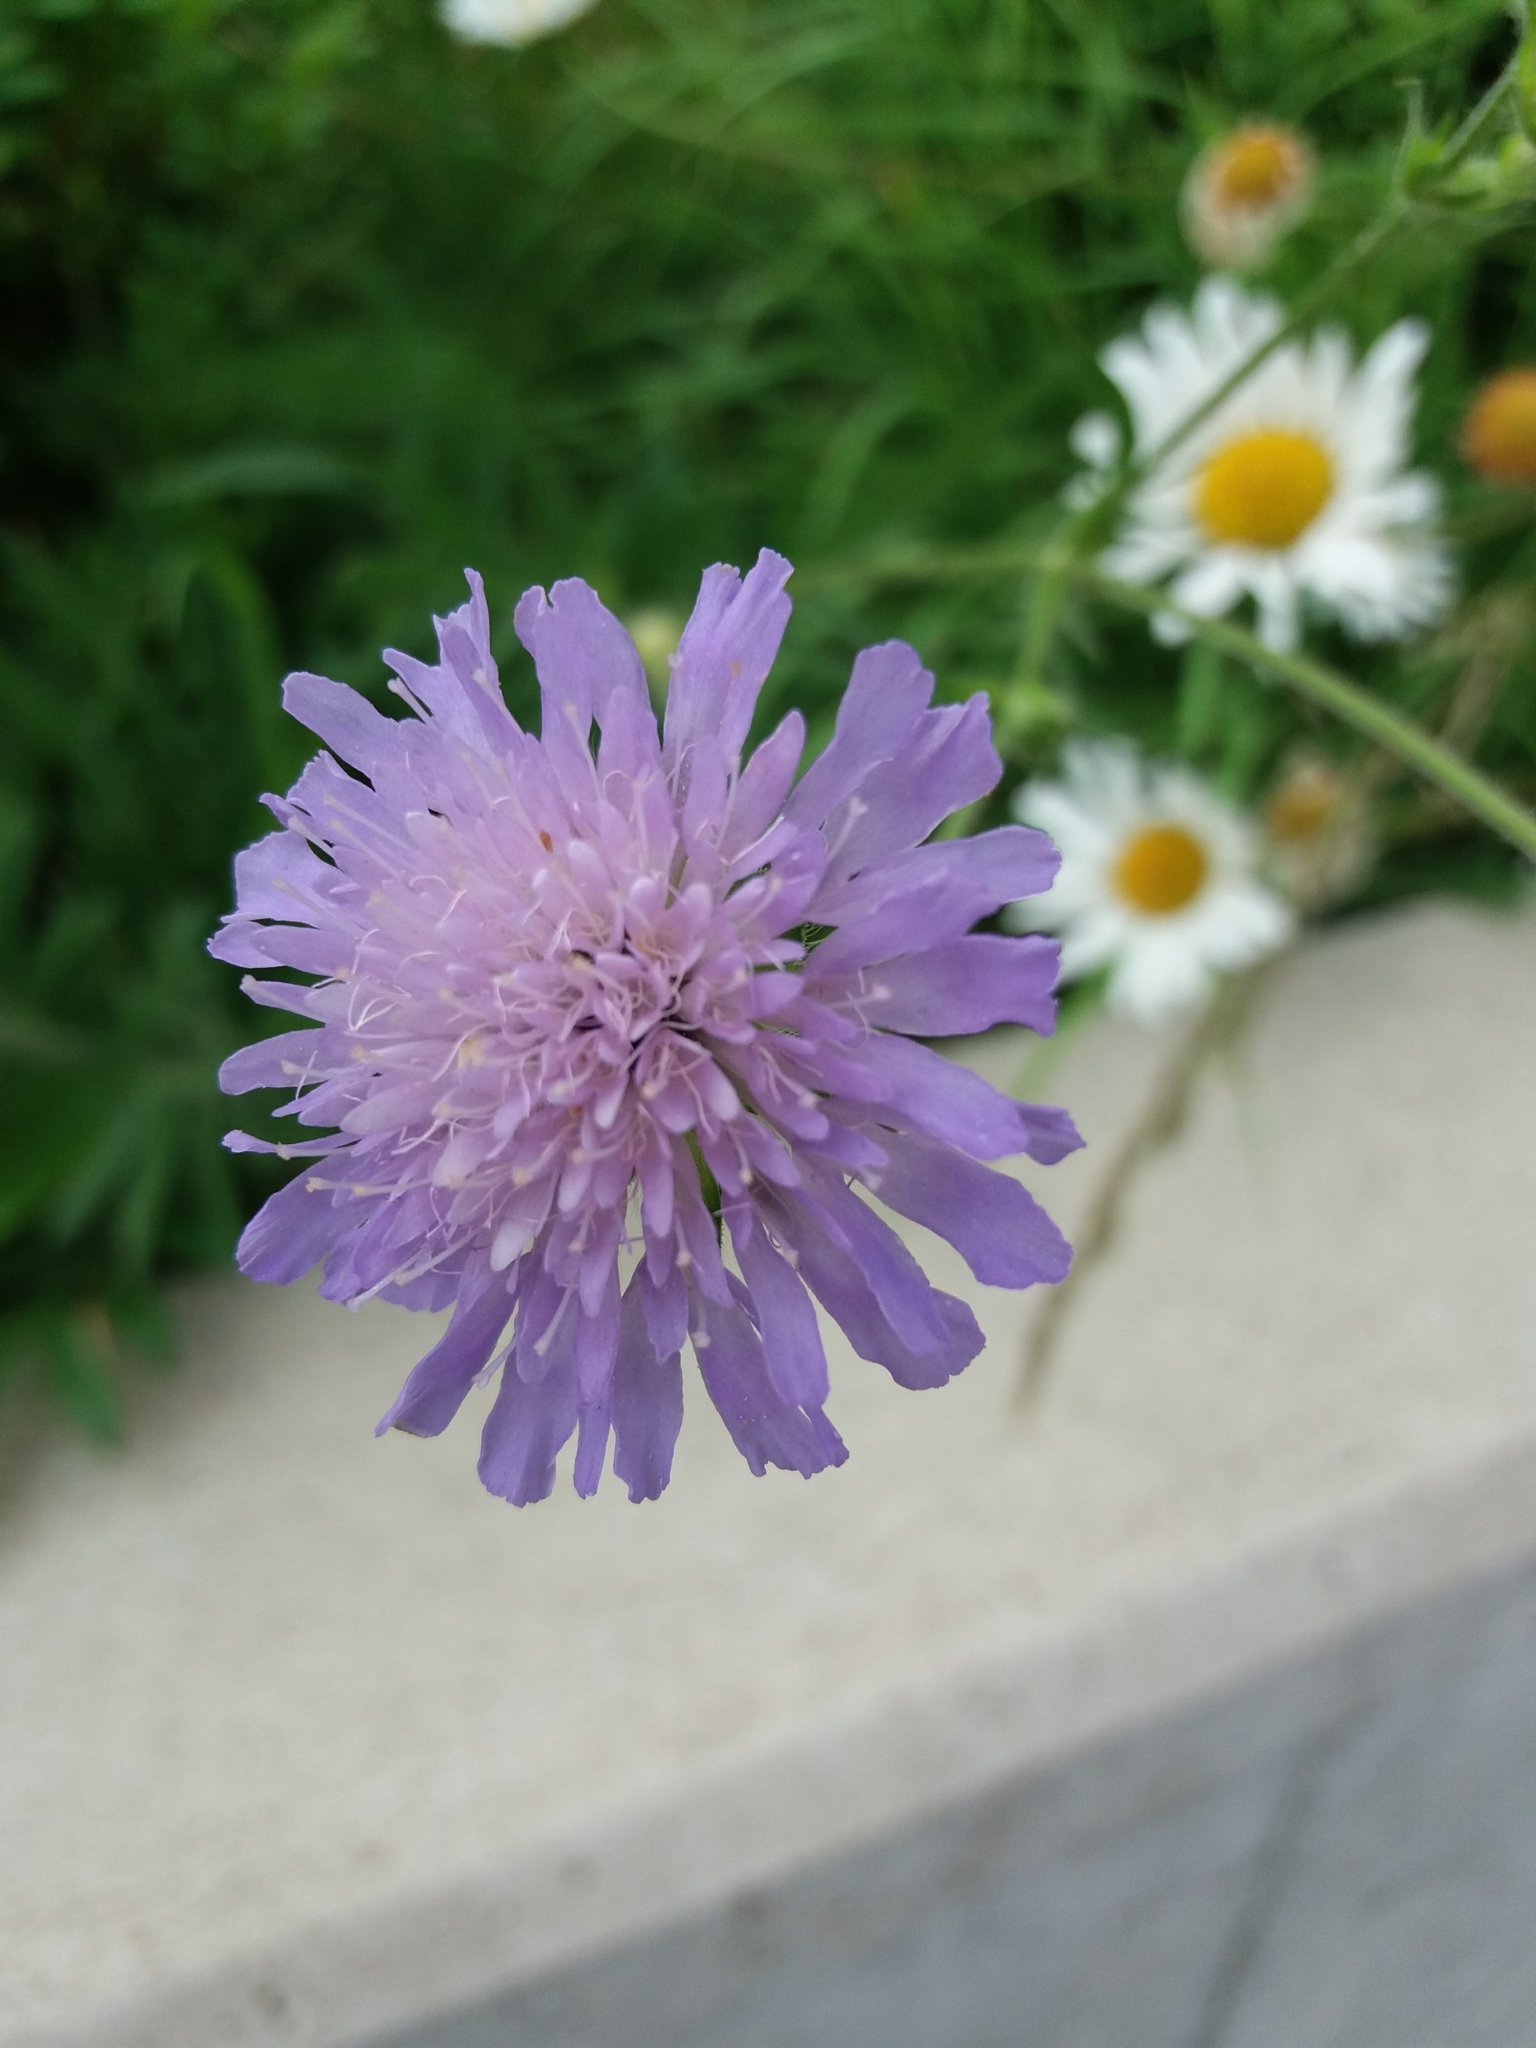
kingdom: Plantae
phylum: Tracheophyta
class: Magnoliopsida
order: Dipsacales
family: Caprifoliaceae
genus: Knautia
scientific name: Knautia arvensis
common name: Field scabiosa
